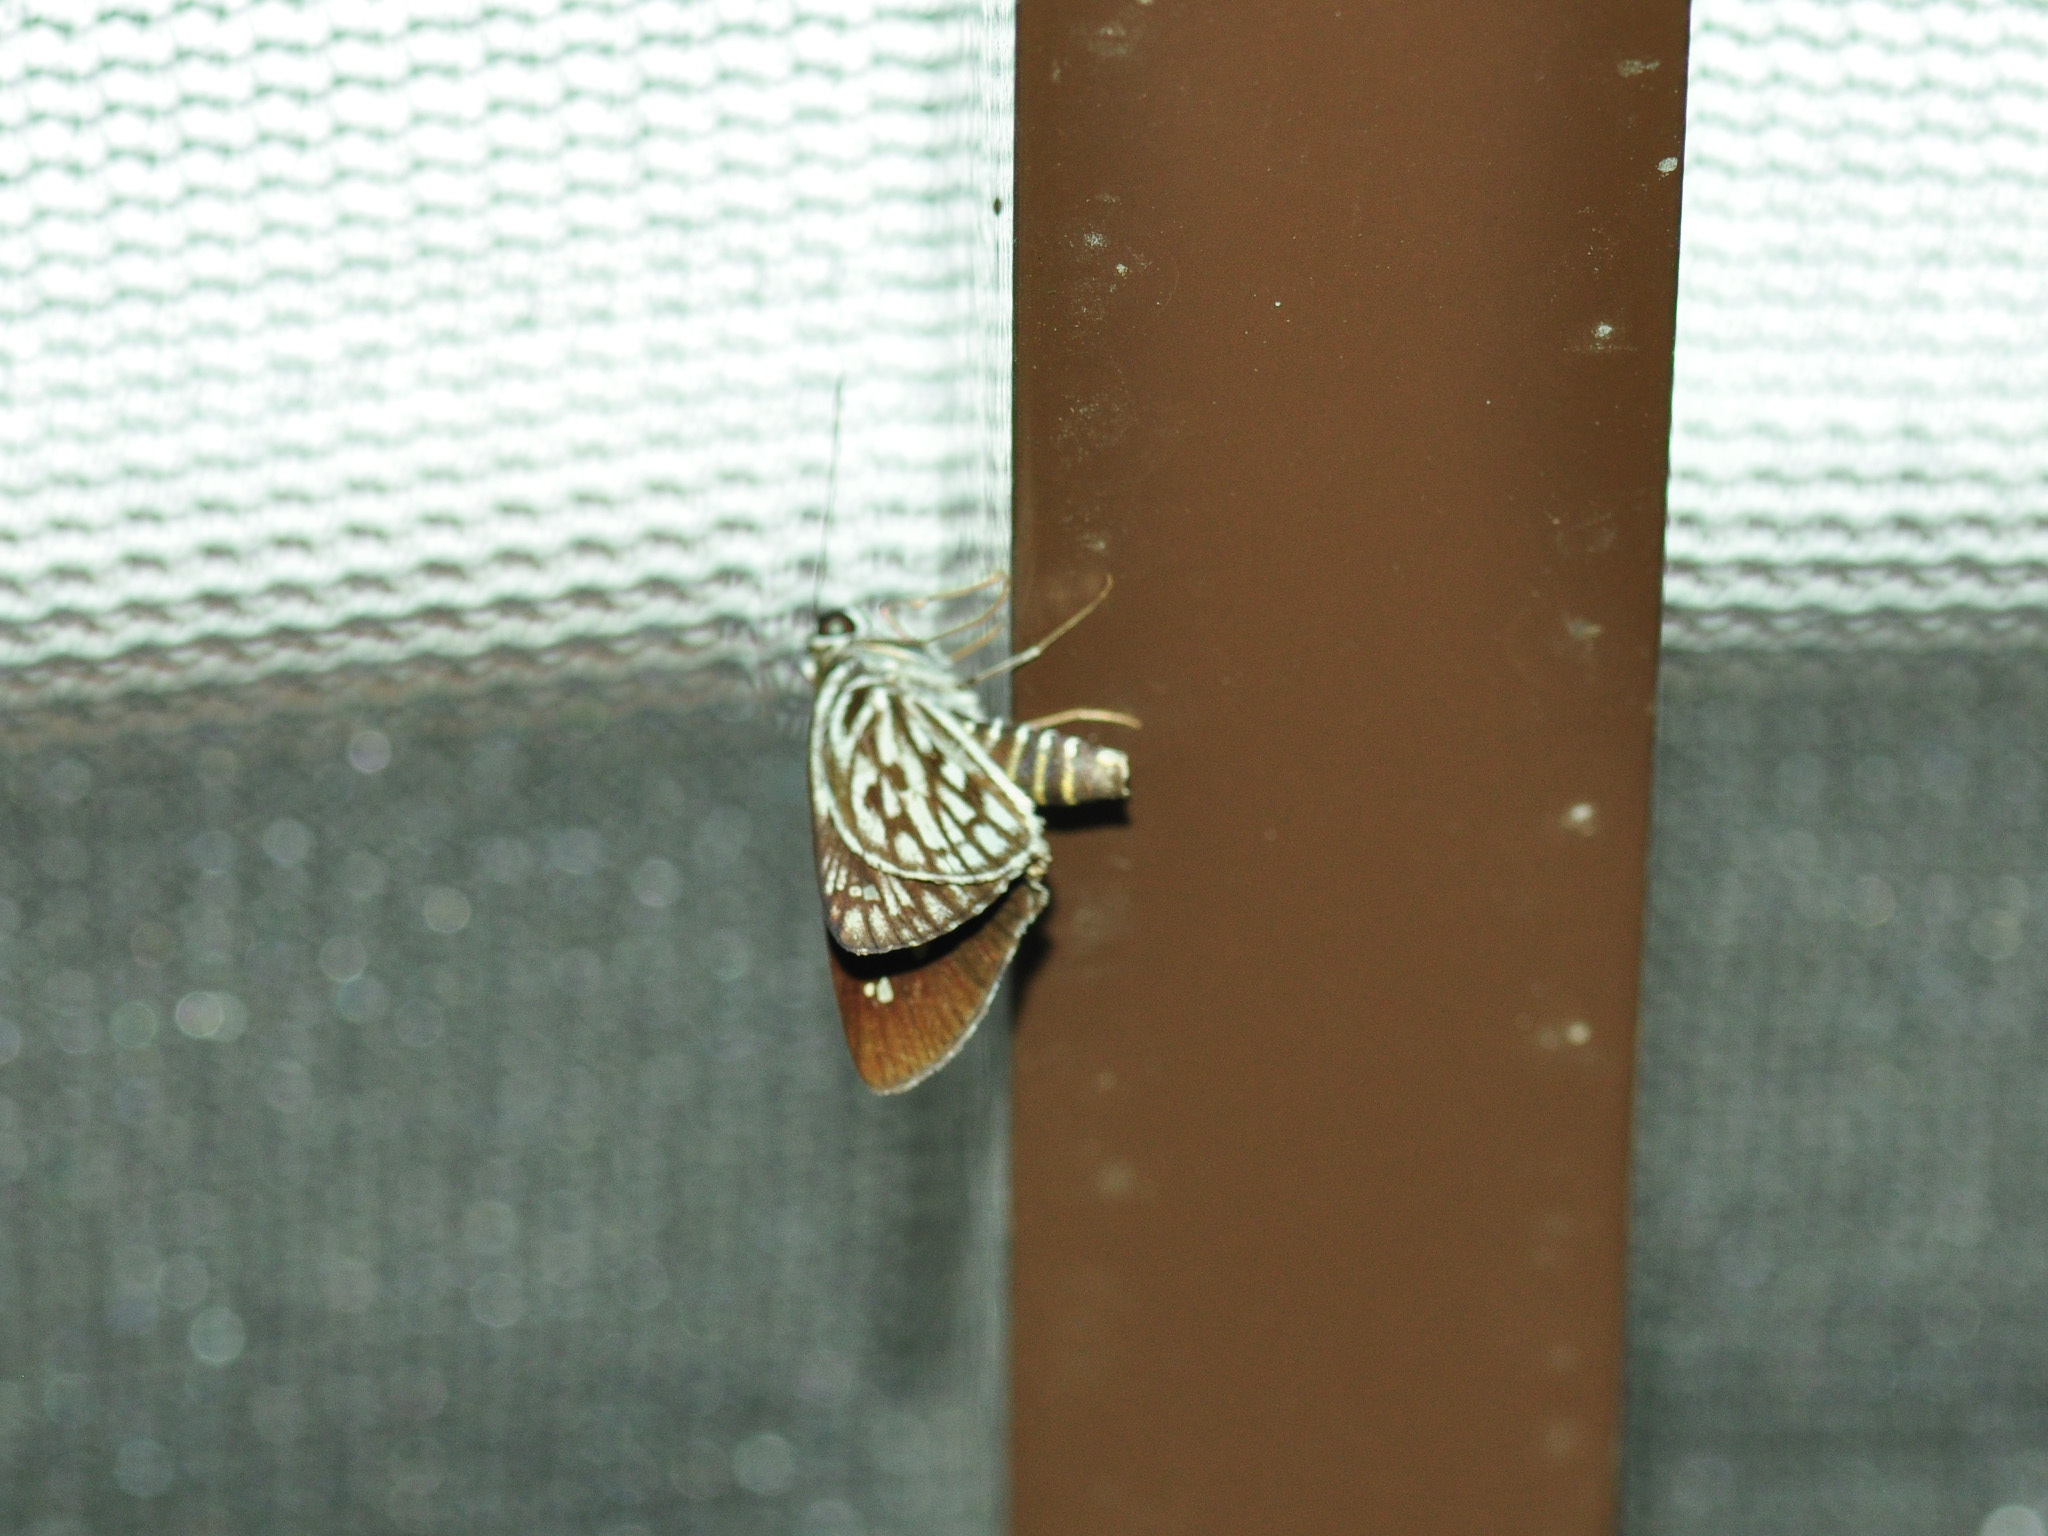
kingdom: Animalia
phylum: Arthropoda
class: Insecta
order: Lepidoptera
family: Hesperiidae
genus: Plastingia
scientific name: Plastingia naga
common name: Chequered lancer
